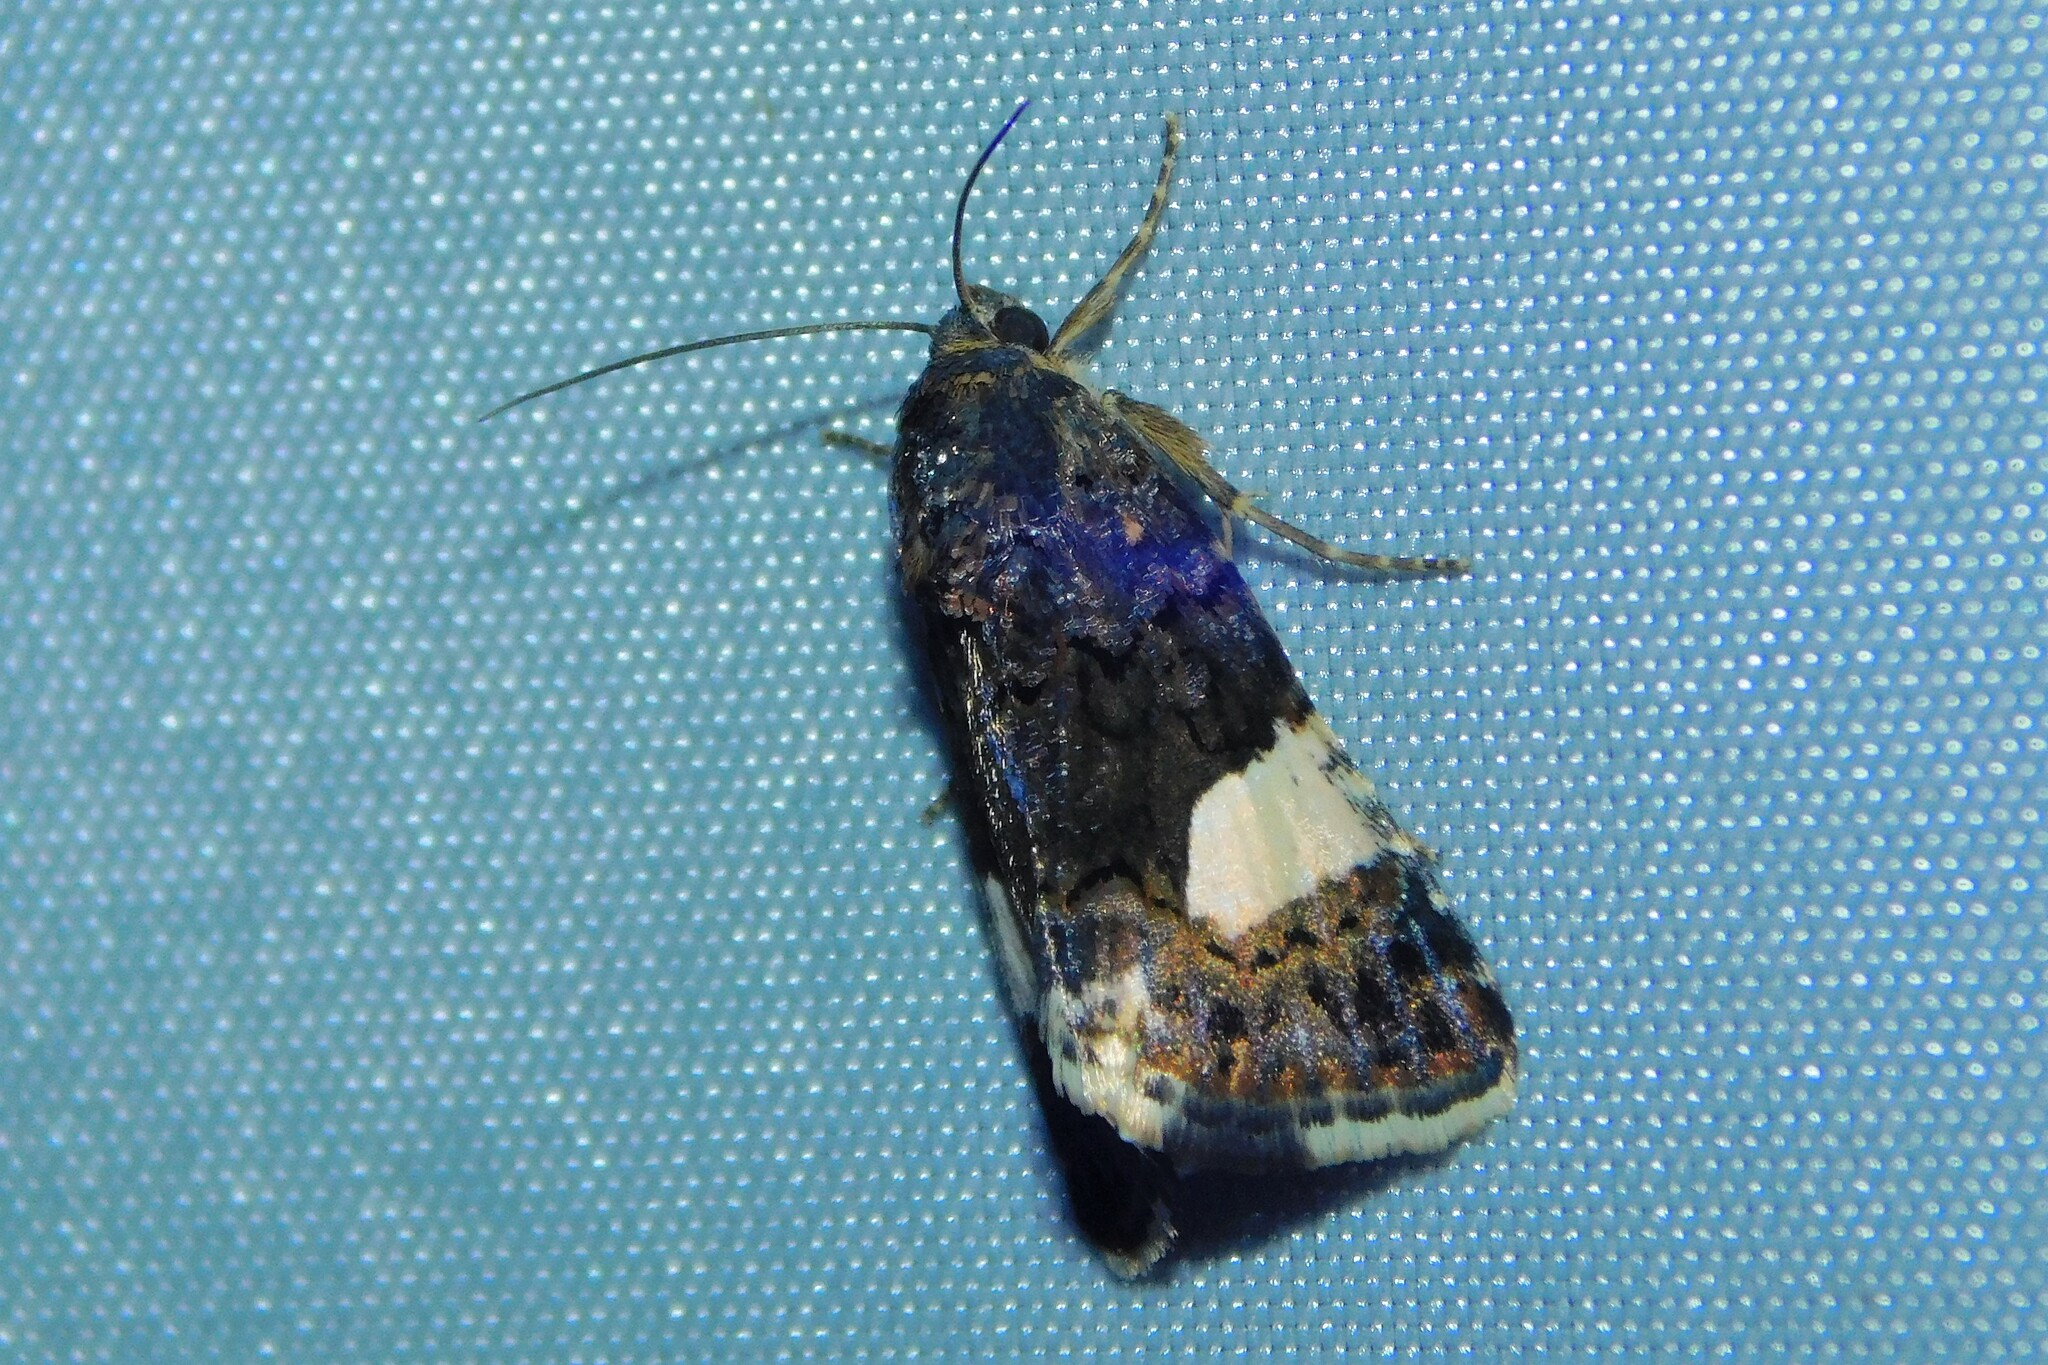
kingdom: Animalia
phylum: Arthropoda
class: Insecta
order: Lepidoptera
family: Erebidae
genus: Tyta
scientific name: Tyta luctuosa
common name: Four-spotted
